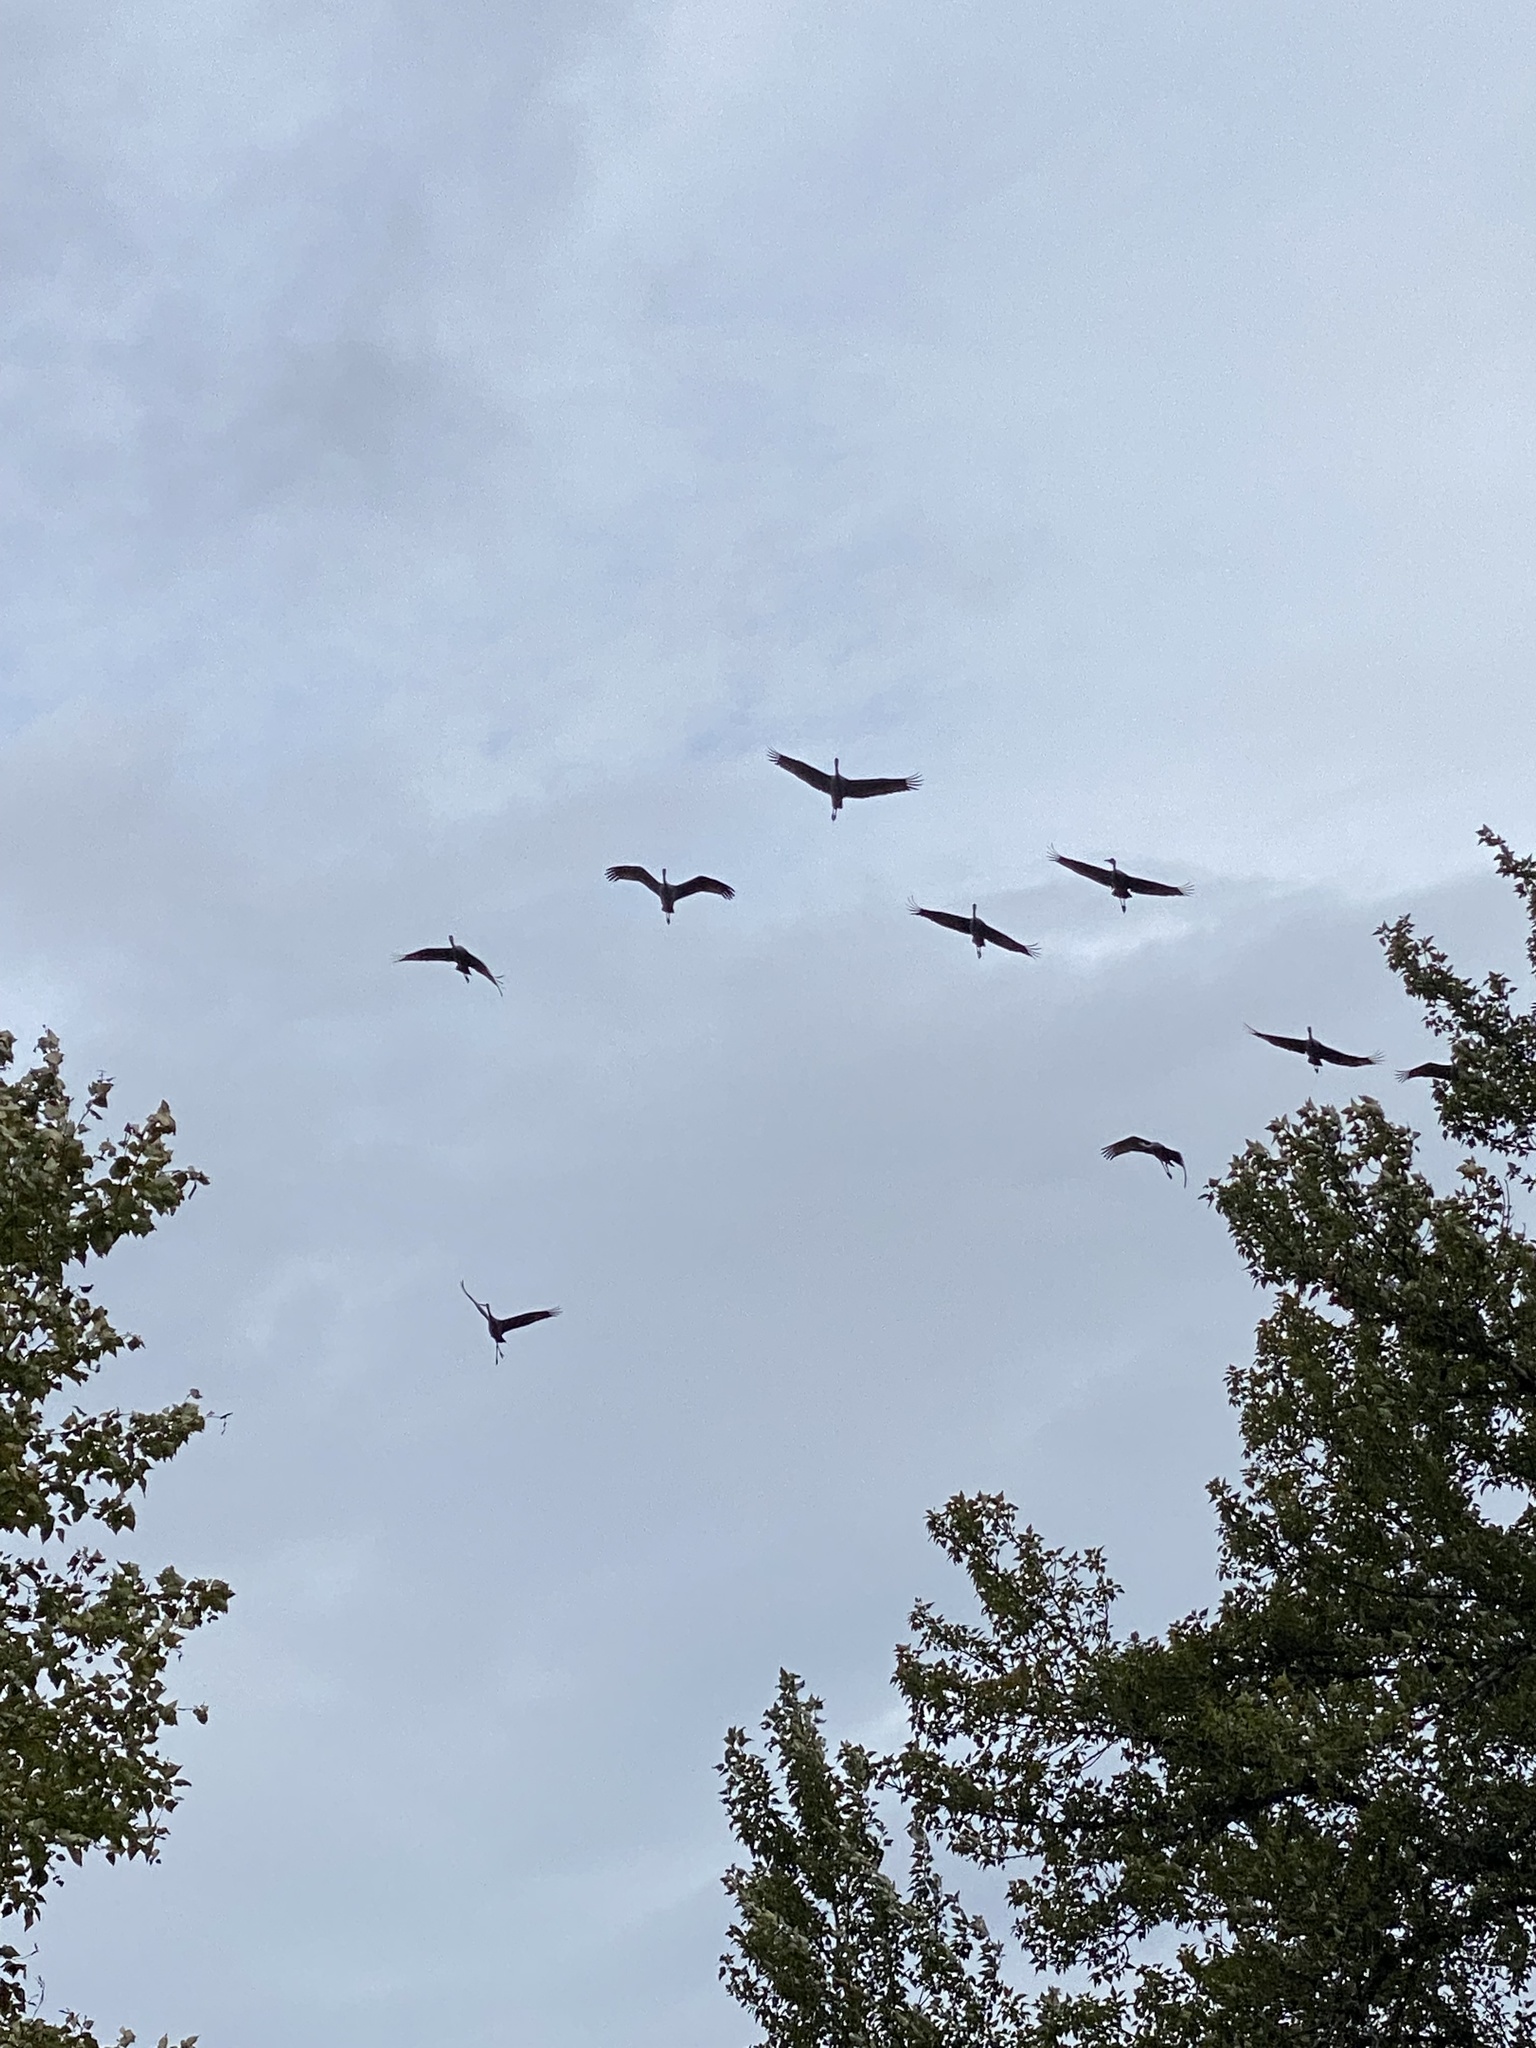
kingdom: Animalia
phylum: Chordata
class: Aves
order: Gruiformes
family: Gruidae
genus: Grus
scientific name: Grus canadensis
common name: Sandhill crane
